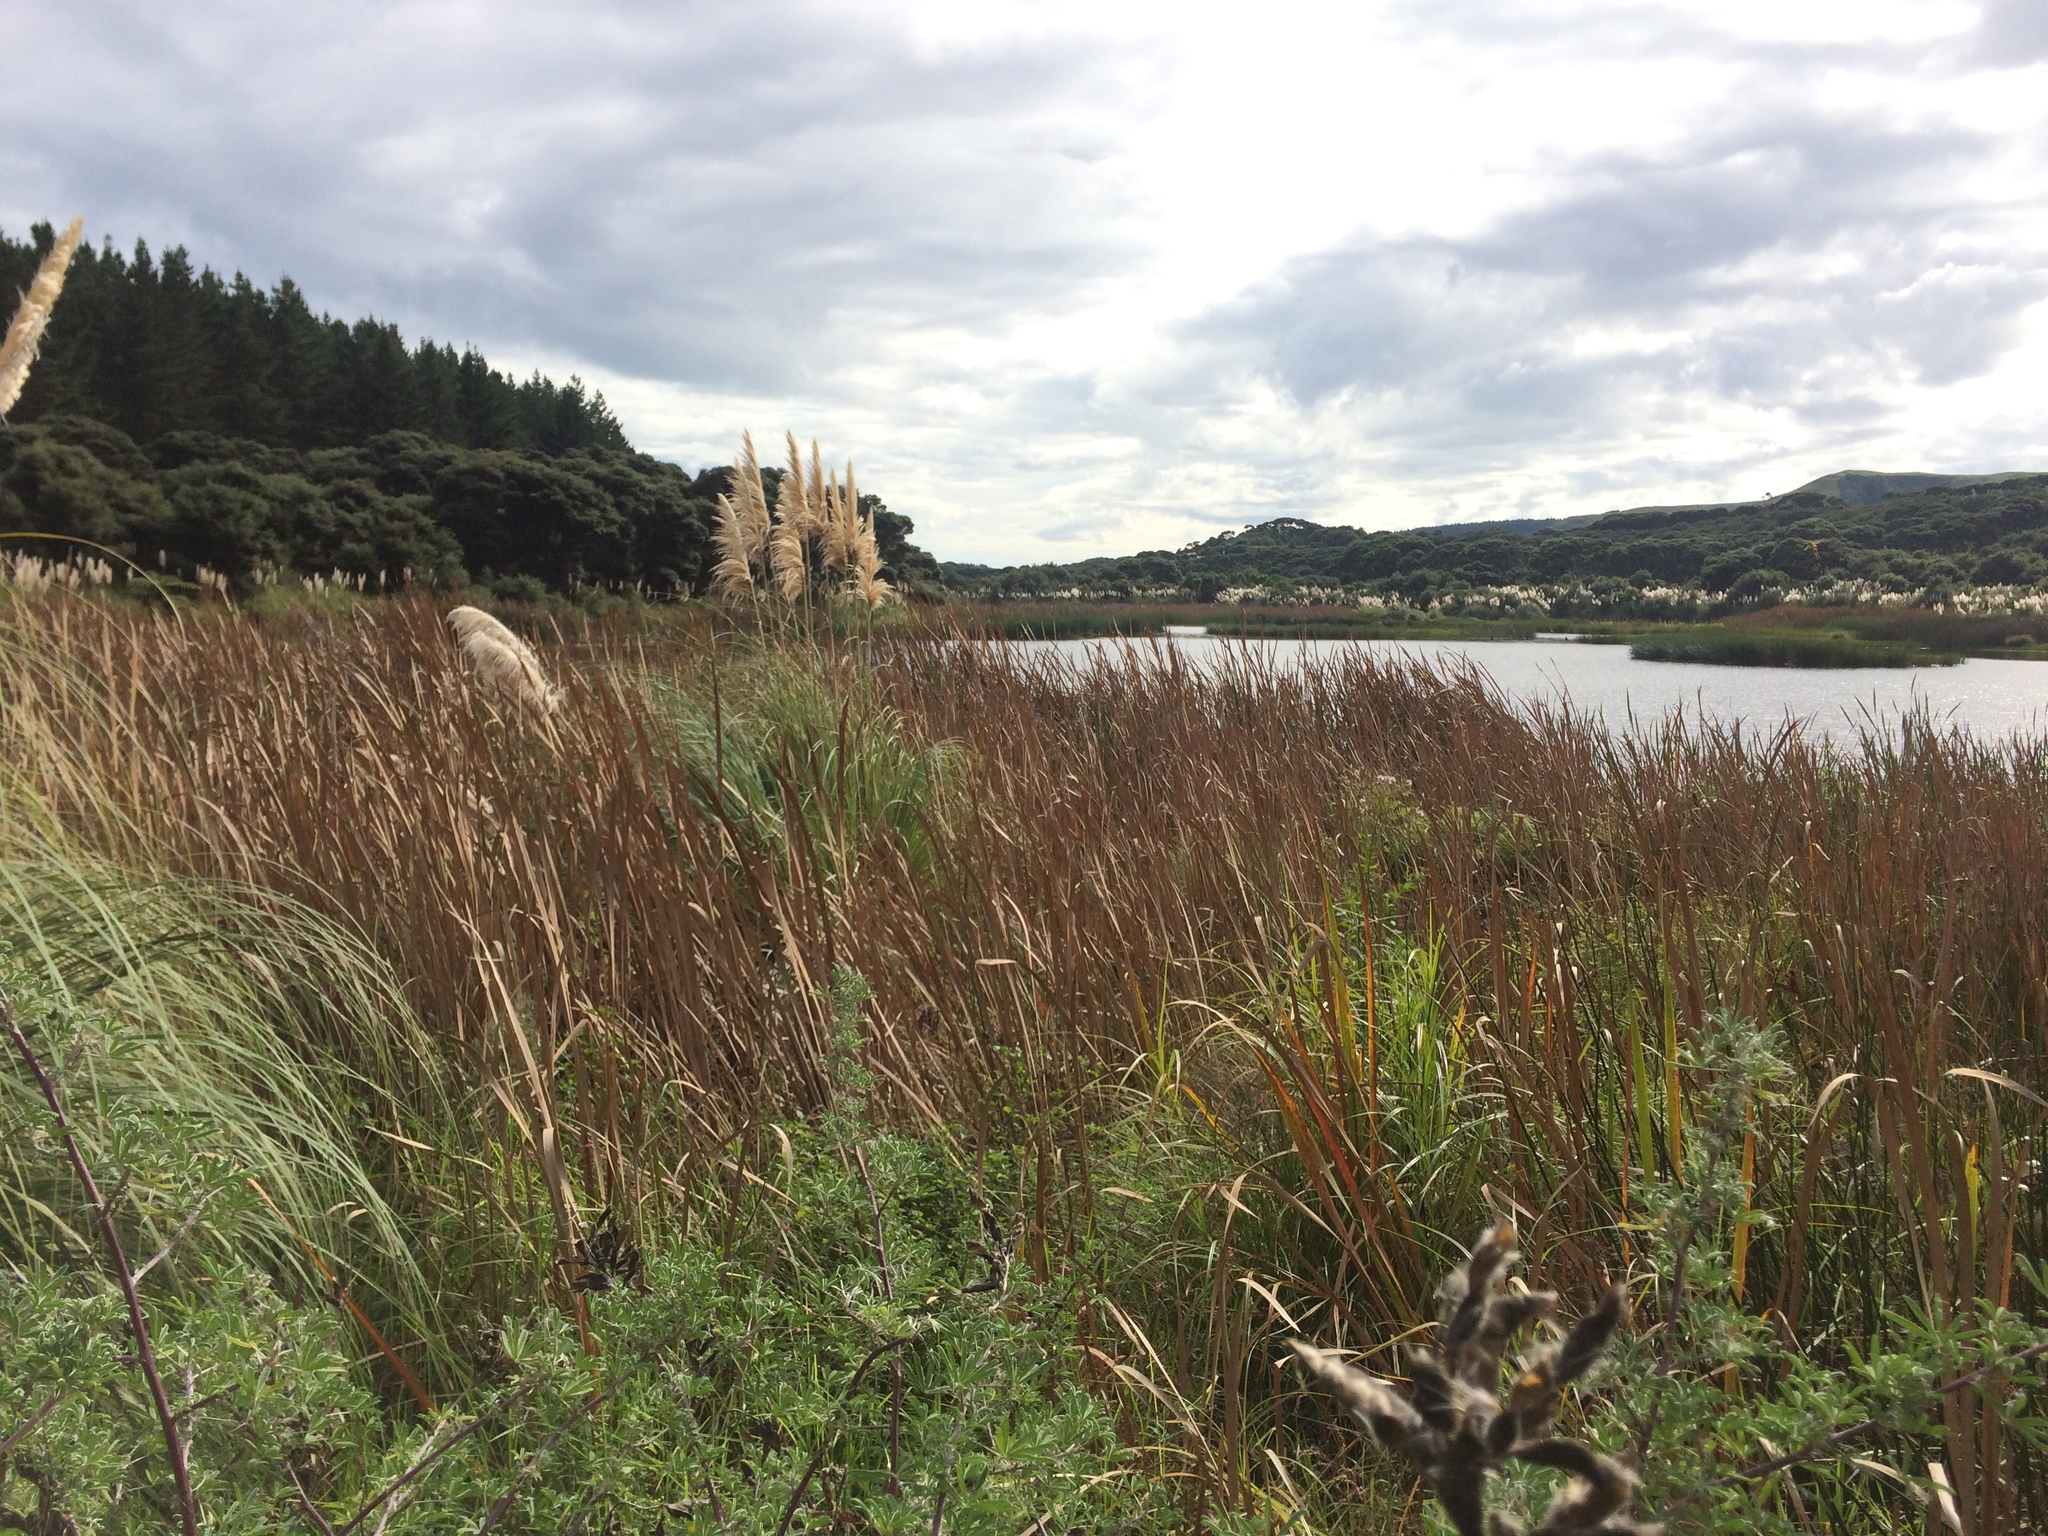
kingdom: Plantae
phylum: Tracheophyta
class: Liliopsida
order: Poales
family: Typhaceae
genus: Typha
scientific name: Typha orientalis
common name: Bullrush
